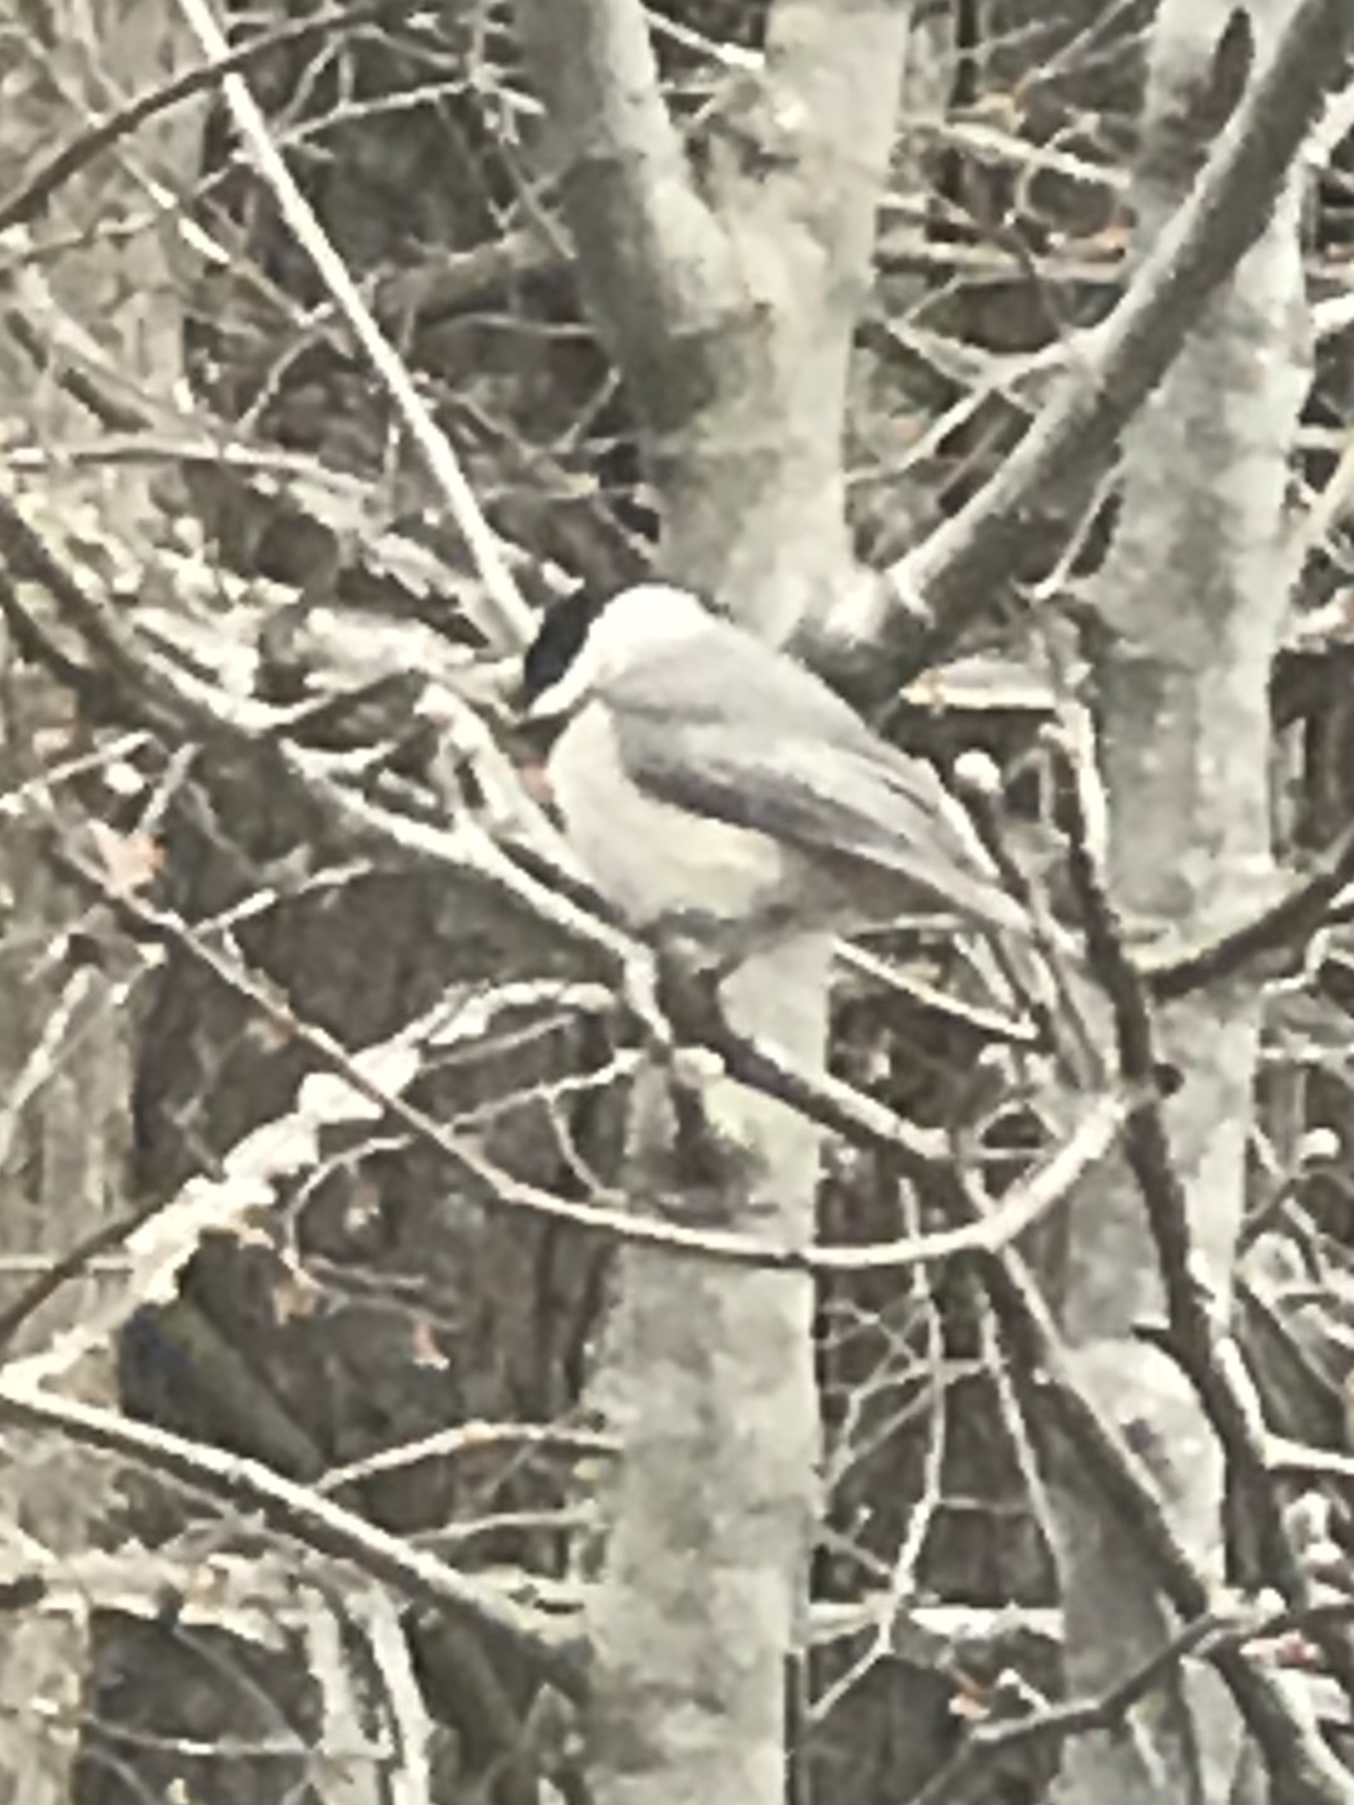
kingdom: Animalia
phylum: Chordata
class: Aves
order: Passeriformes
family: Paridae
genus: Poecile
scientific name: Poecile carolinensis
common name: Carolina chickadee
